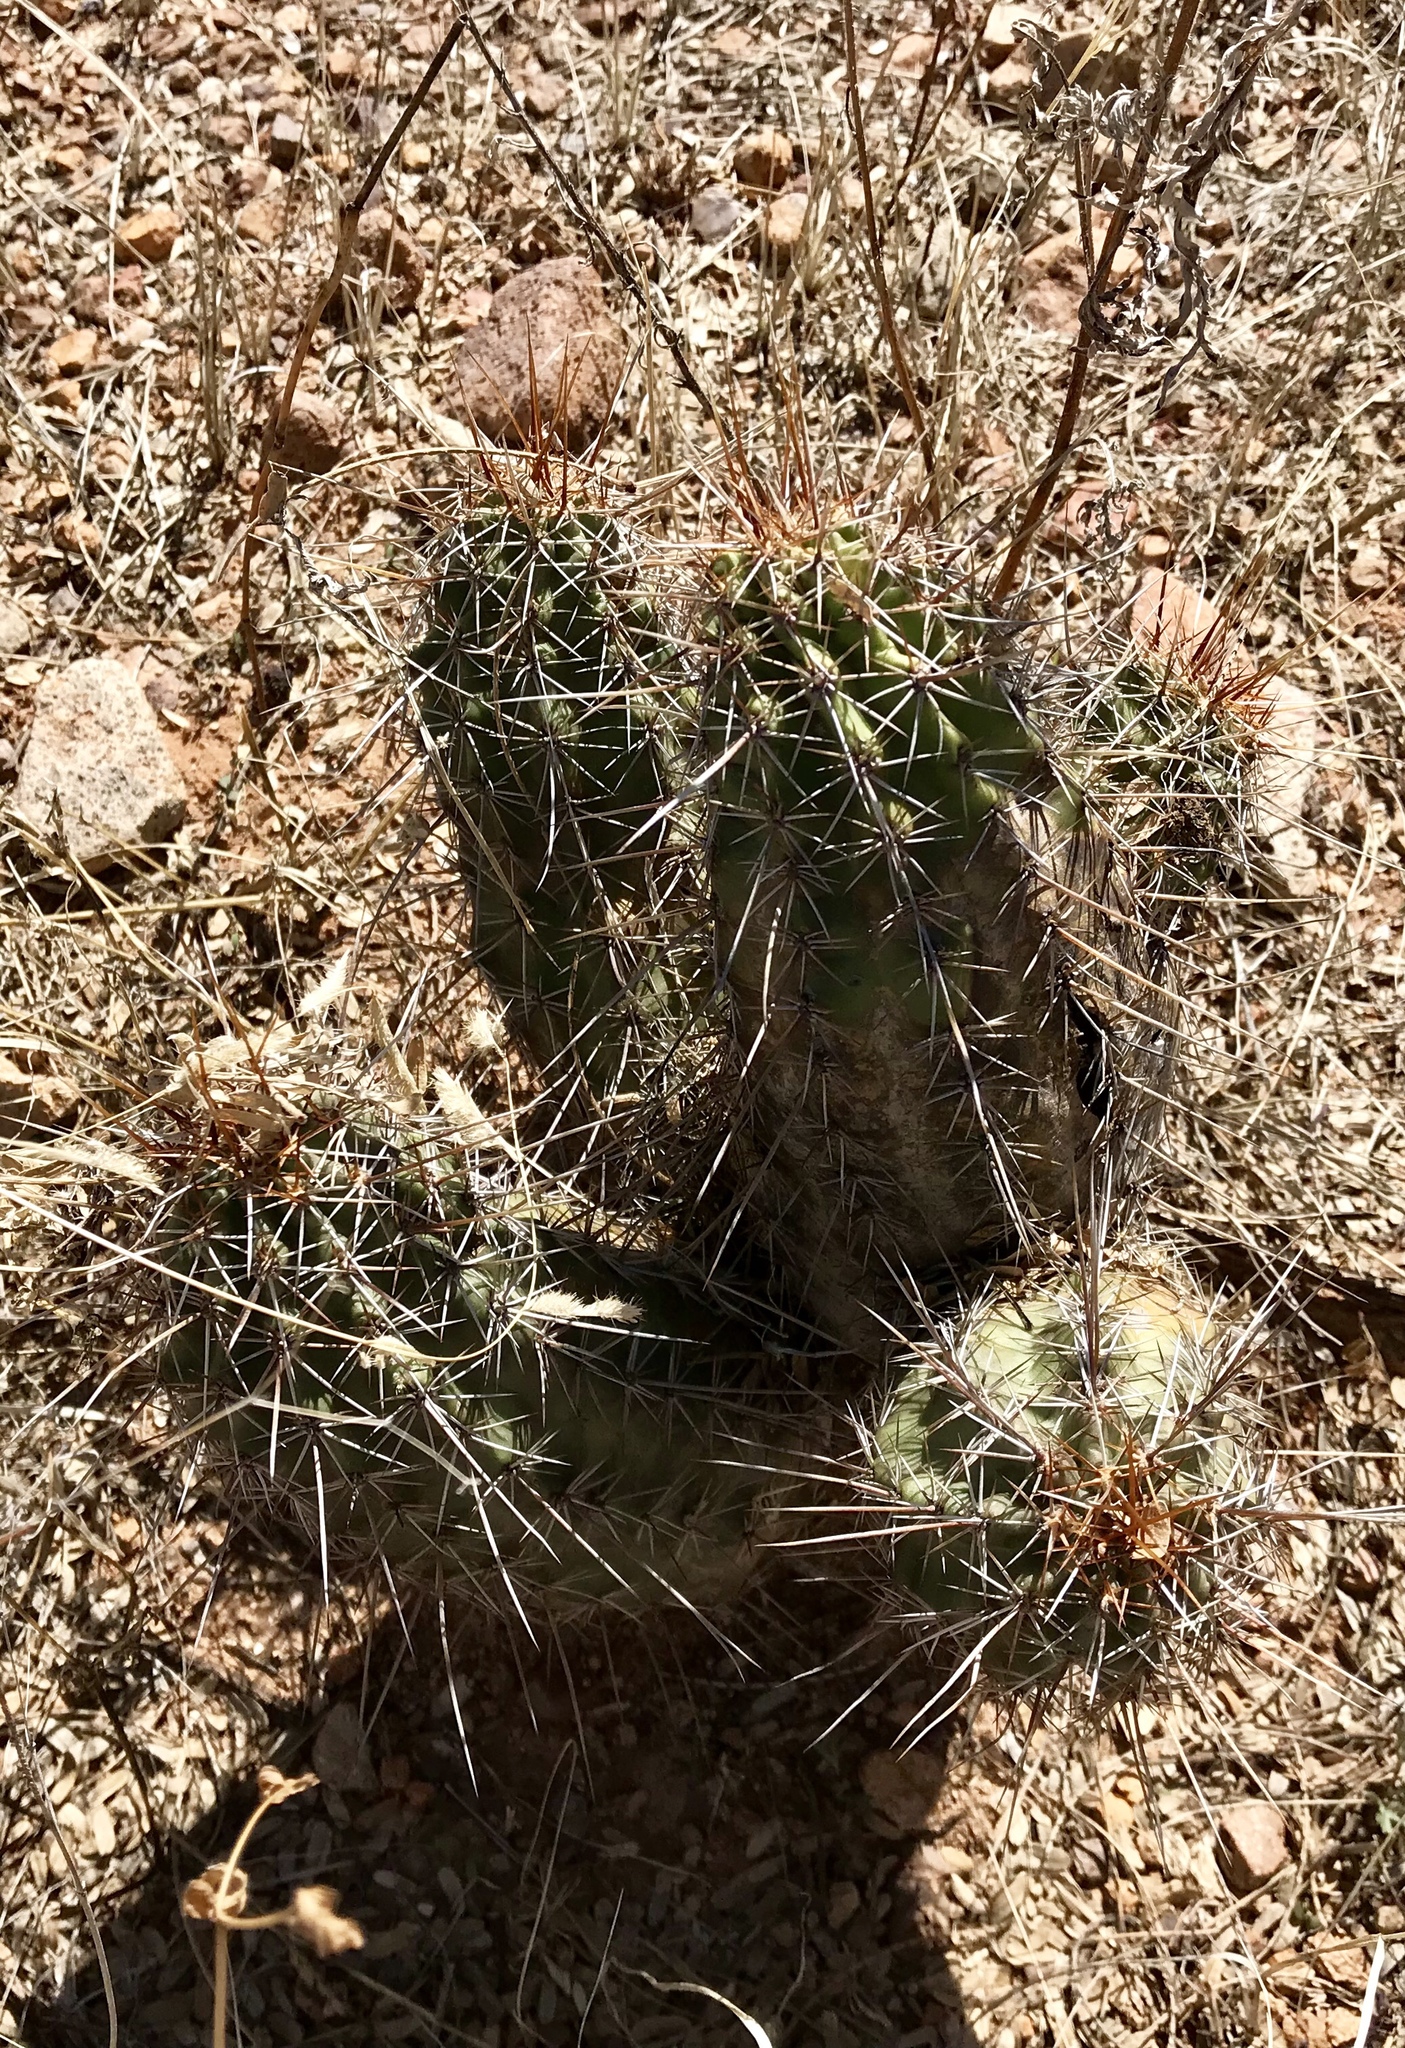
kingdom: Plantae
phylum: Tracheophyta
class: Magnoliopsida
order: Caryophyllales
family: Cactaceae
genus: Echinocereus
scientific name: Echinocereus fendleri
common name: Fendler's hedgehog cactus
